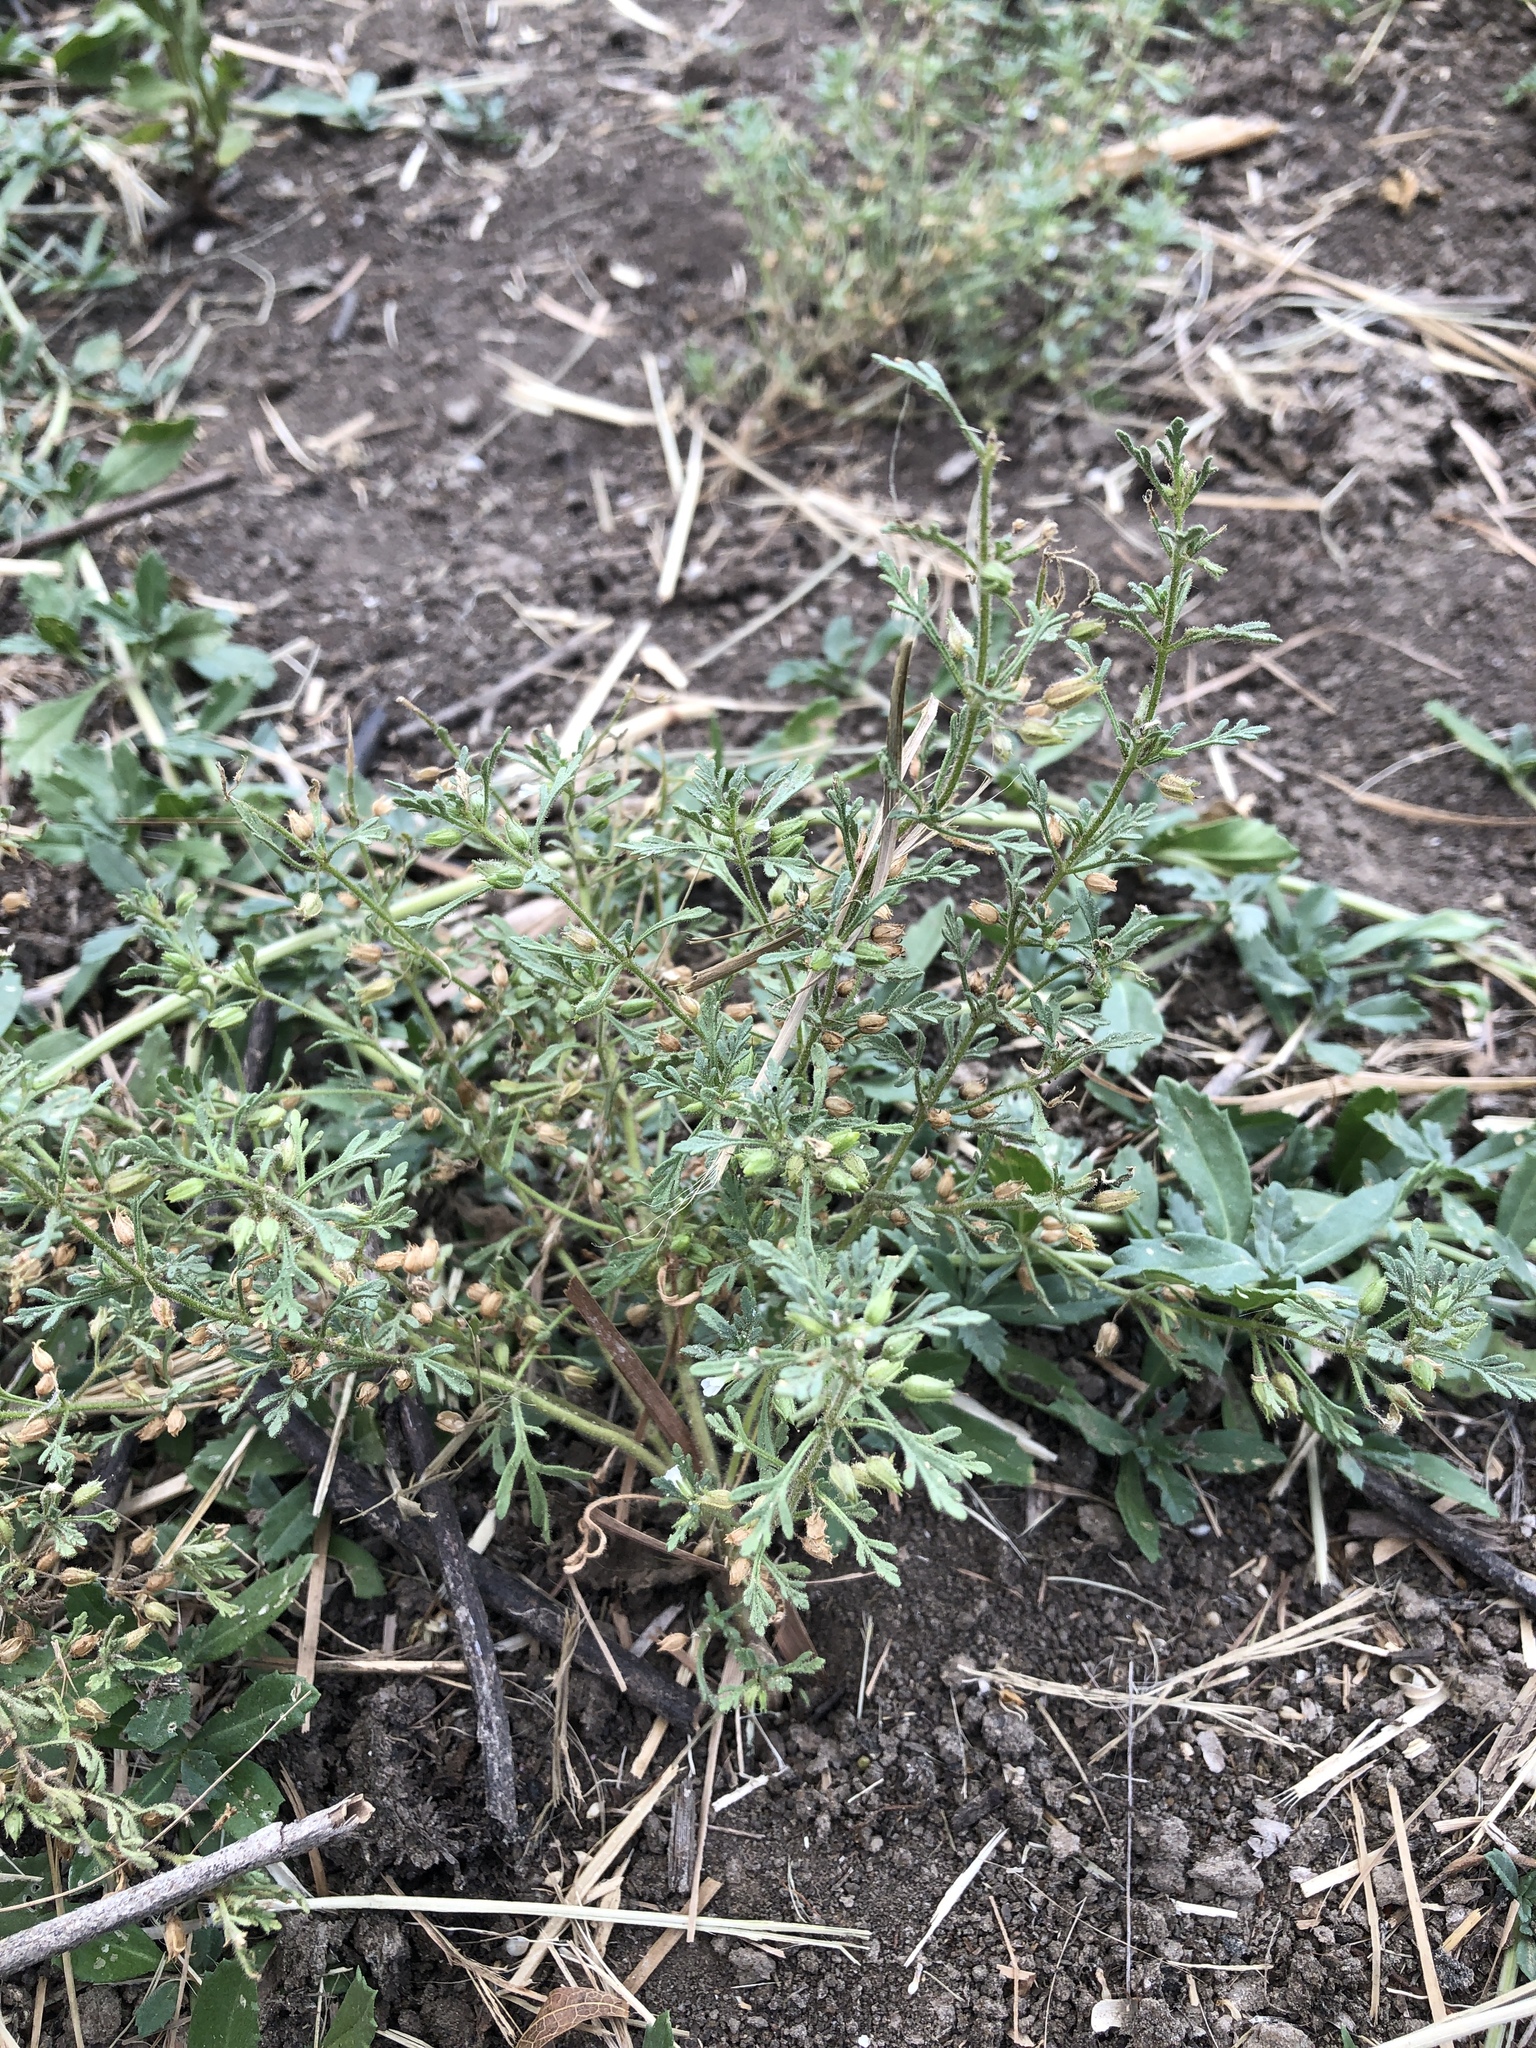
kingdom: Plantae
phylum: Tracheophyta
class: Magnoliopsida
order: Lamiales
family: Plantaginaceae
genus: Leucospora
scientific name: Leucospora multifida
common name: Narrow-leaf paleseed
